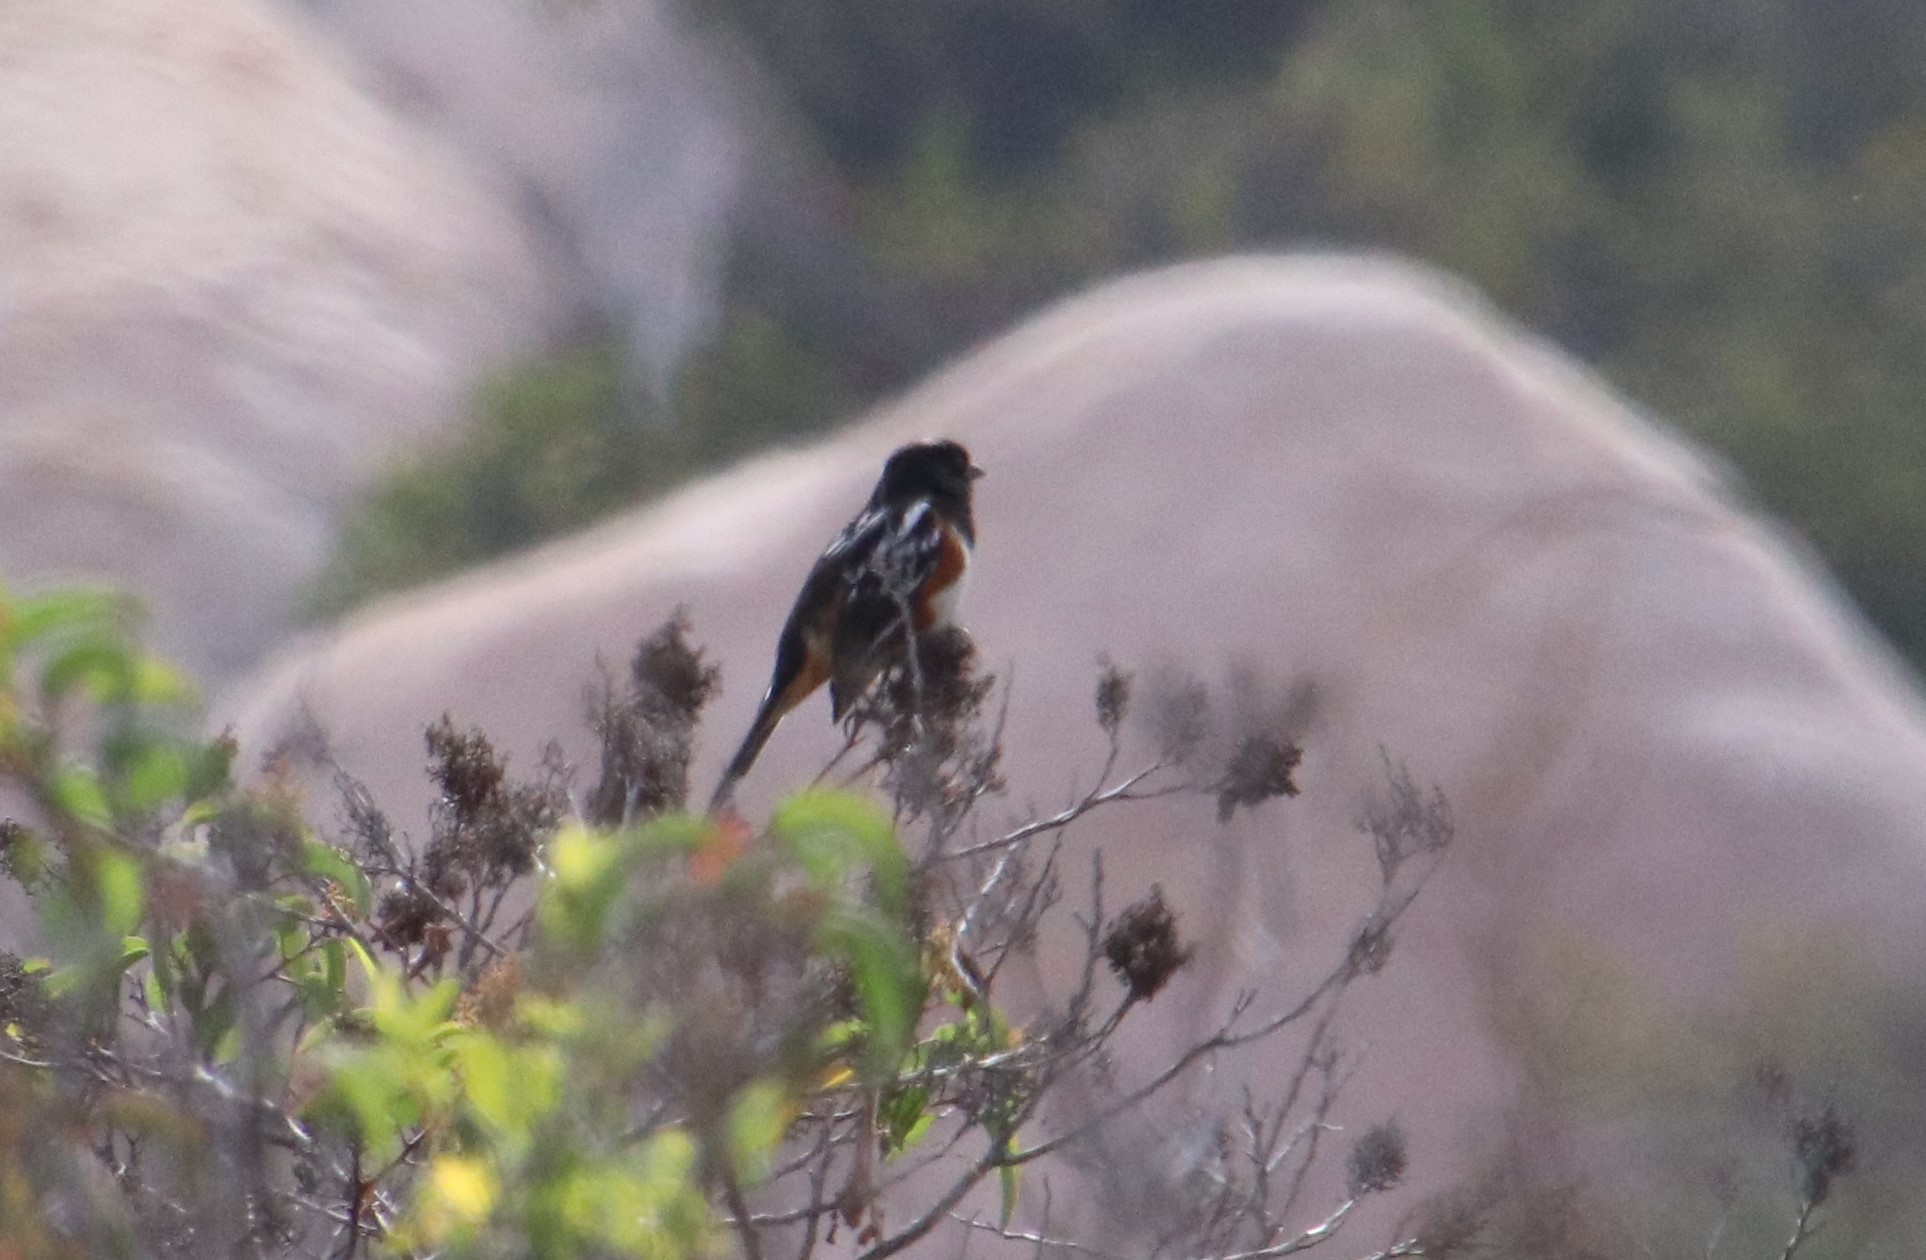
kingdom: Animalia
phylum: Chordata
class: Aves
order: Passeriformes
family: Passerellidae
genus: Pipilo
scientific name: Pipilo maculatus
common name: Spotted towhee
